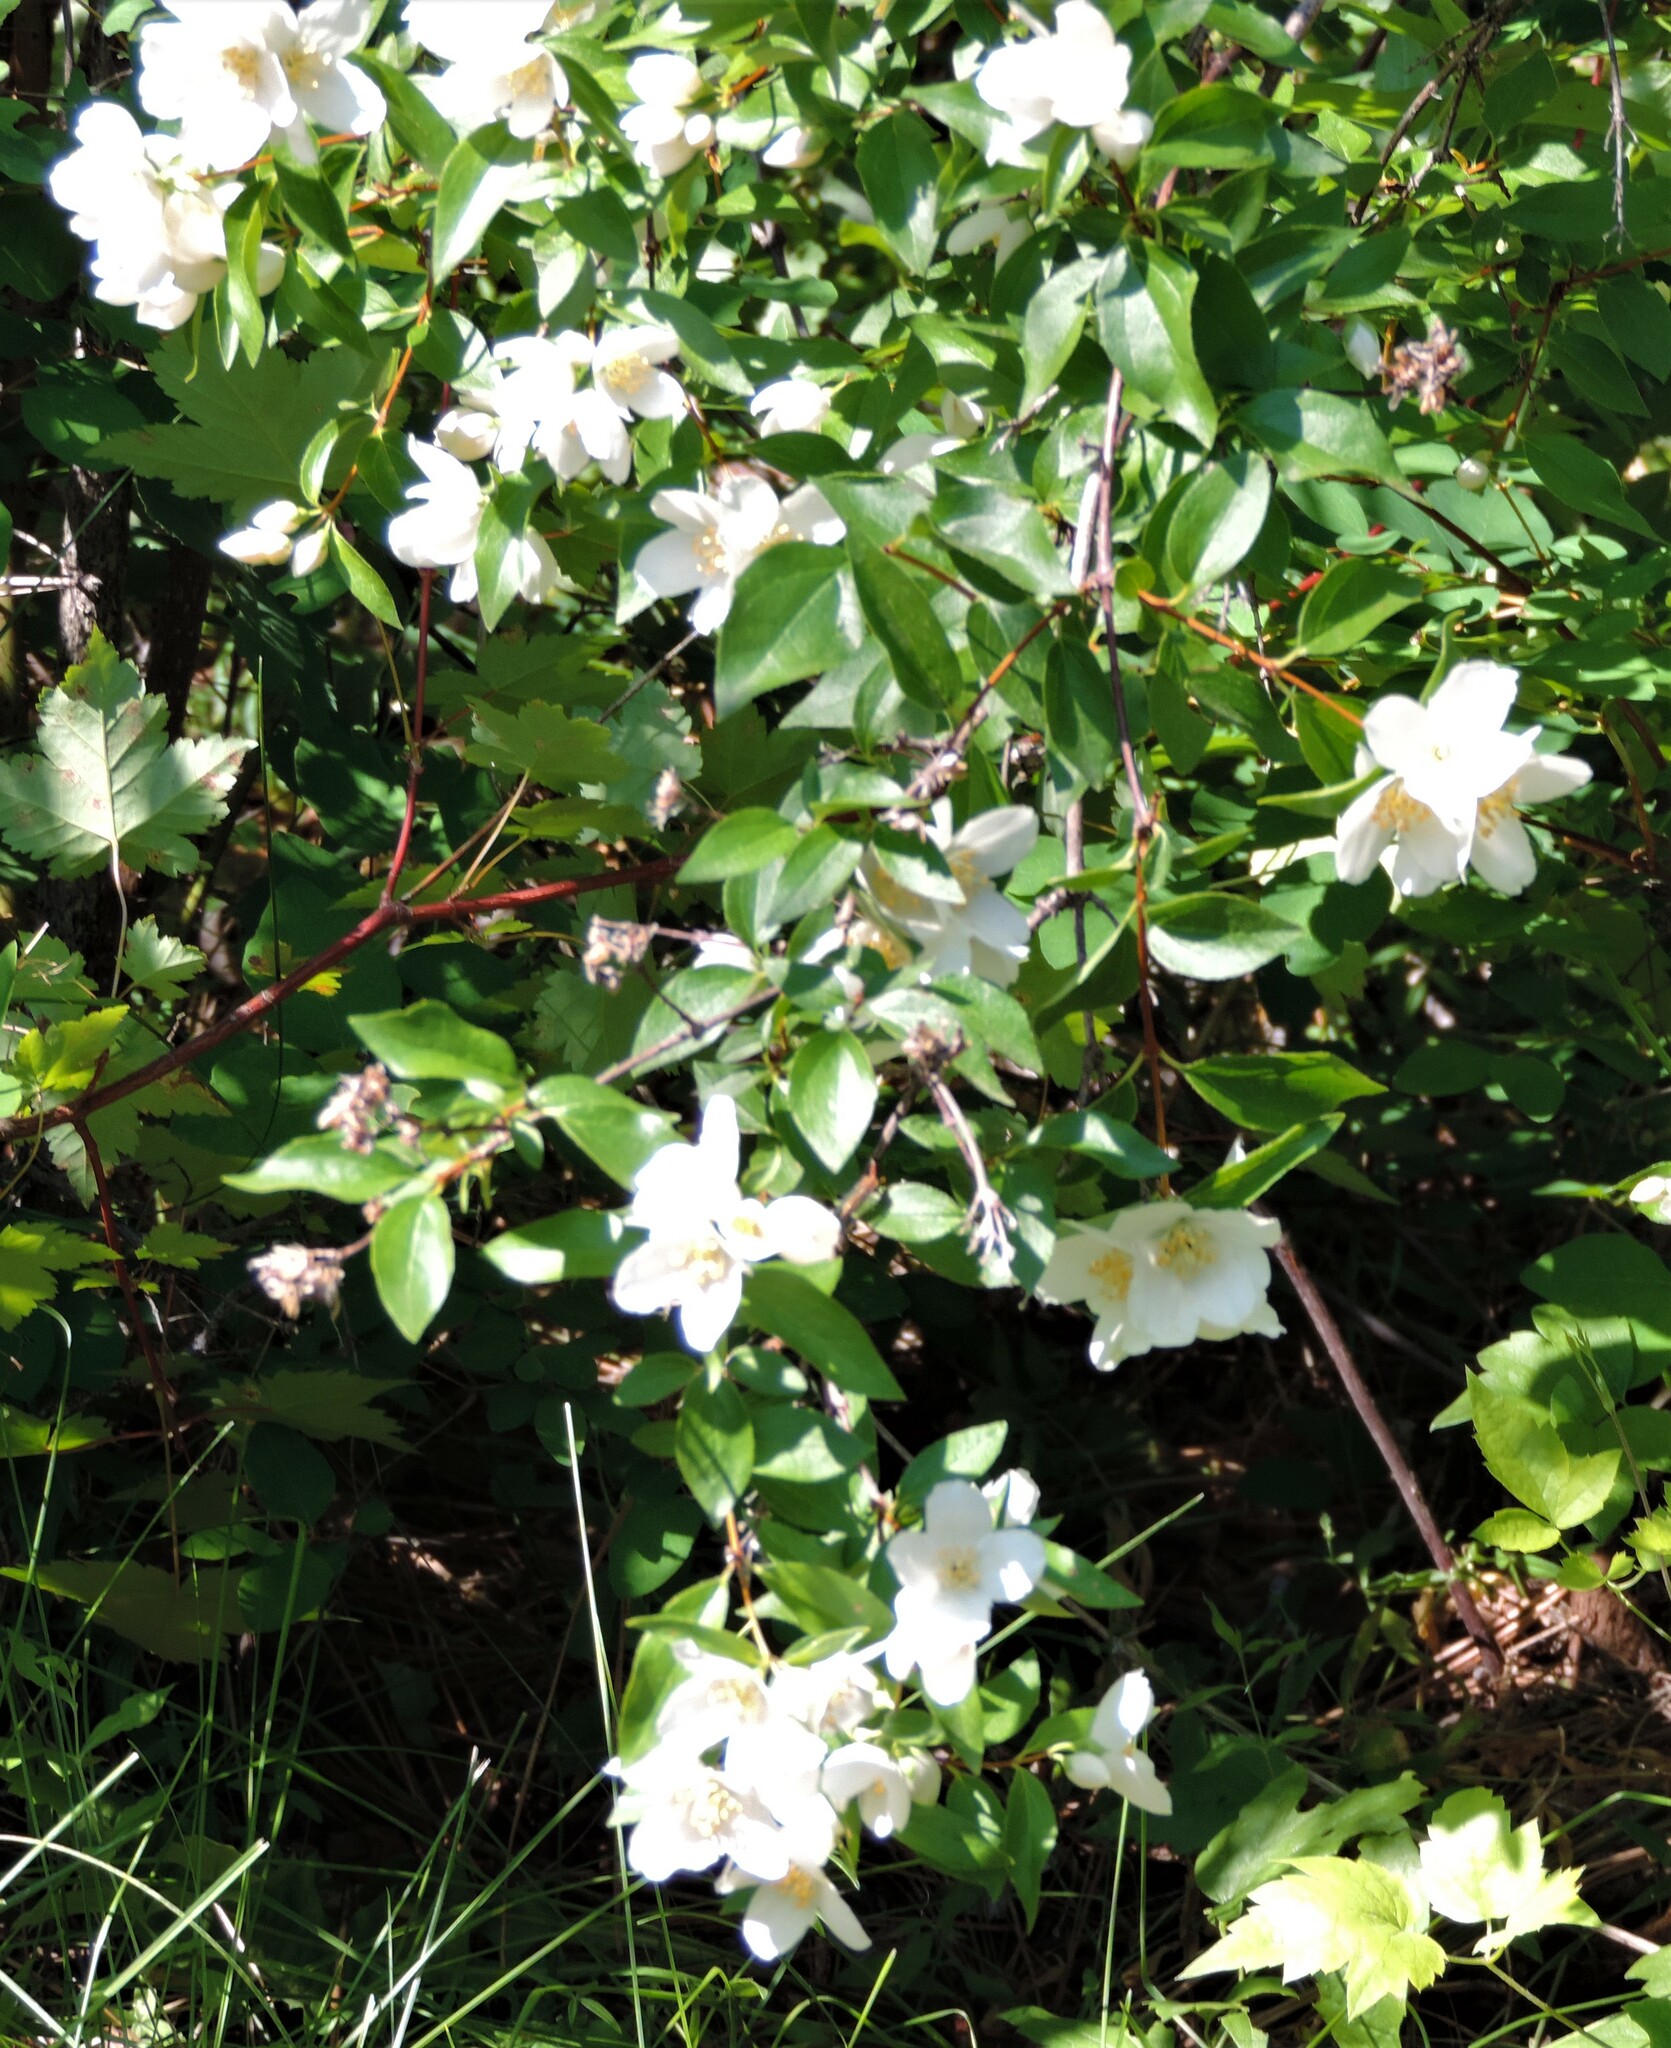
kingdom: Plantae
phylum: Tracheophyta
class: Magnoliopsida
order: Cornales
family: Hydrangeaceae
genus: Philadelphus
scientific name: Philadelphus lewisii
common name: Lewis's mock orange
